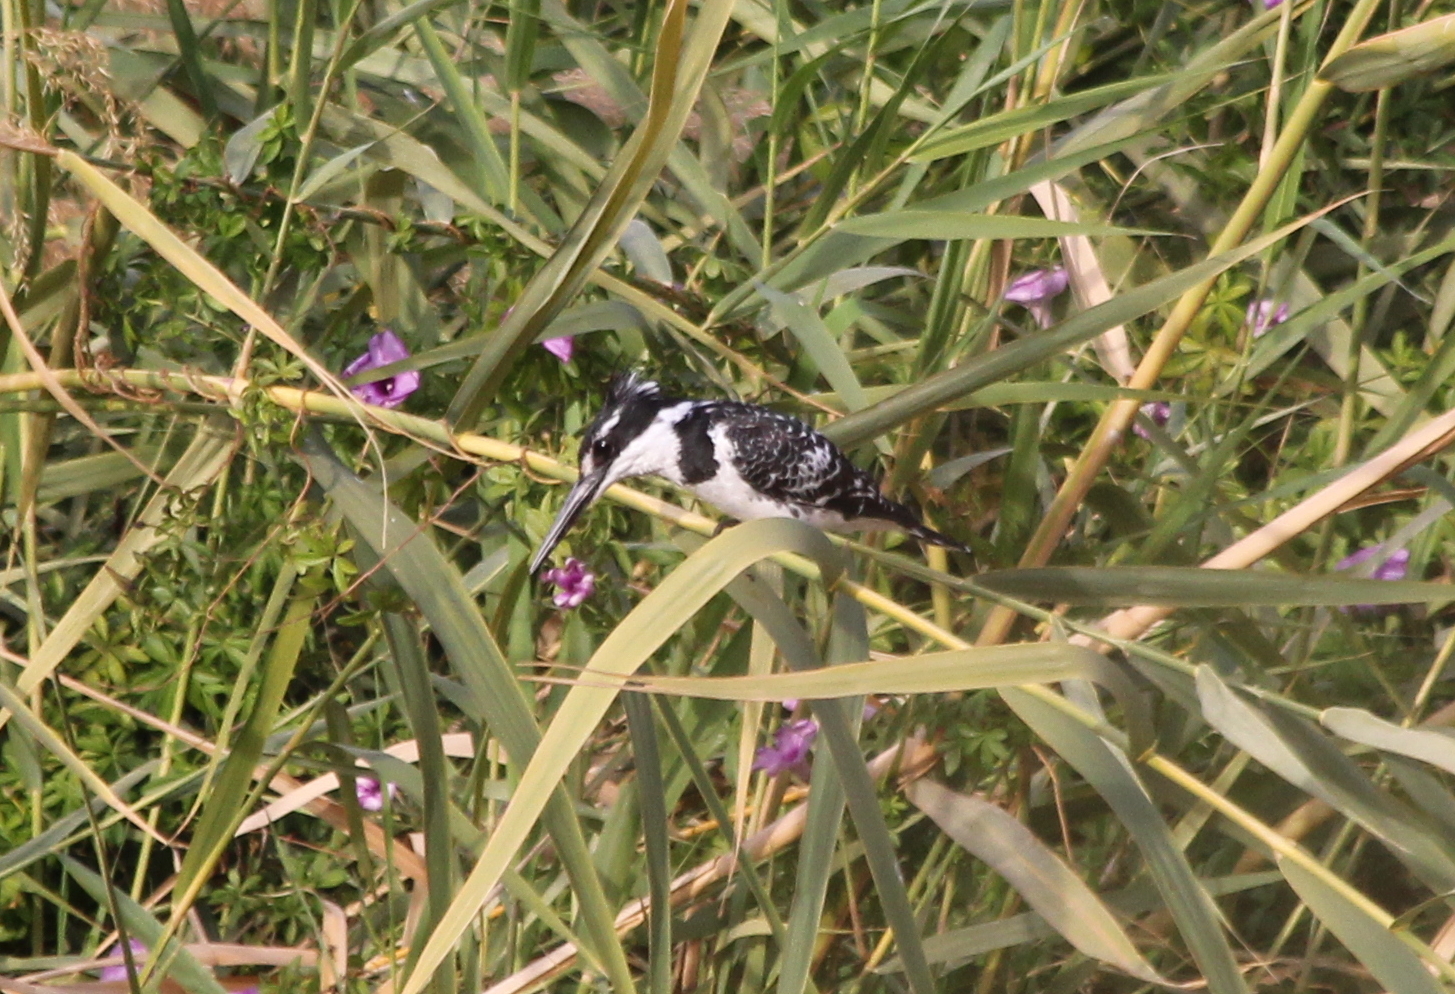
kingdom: Animalia
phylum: Chordata
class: Aves
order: Coraciiformes
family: Alcedinidae
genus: Ceryle
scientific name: Ceryle rudis
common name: Pied kingfisher
